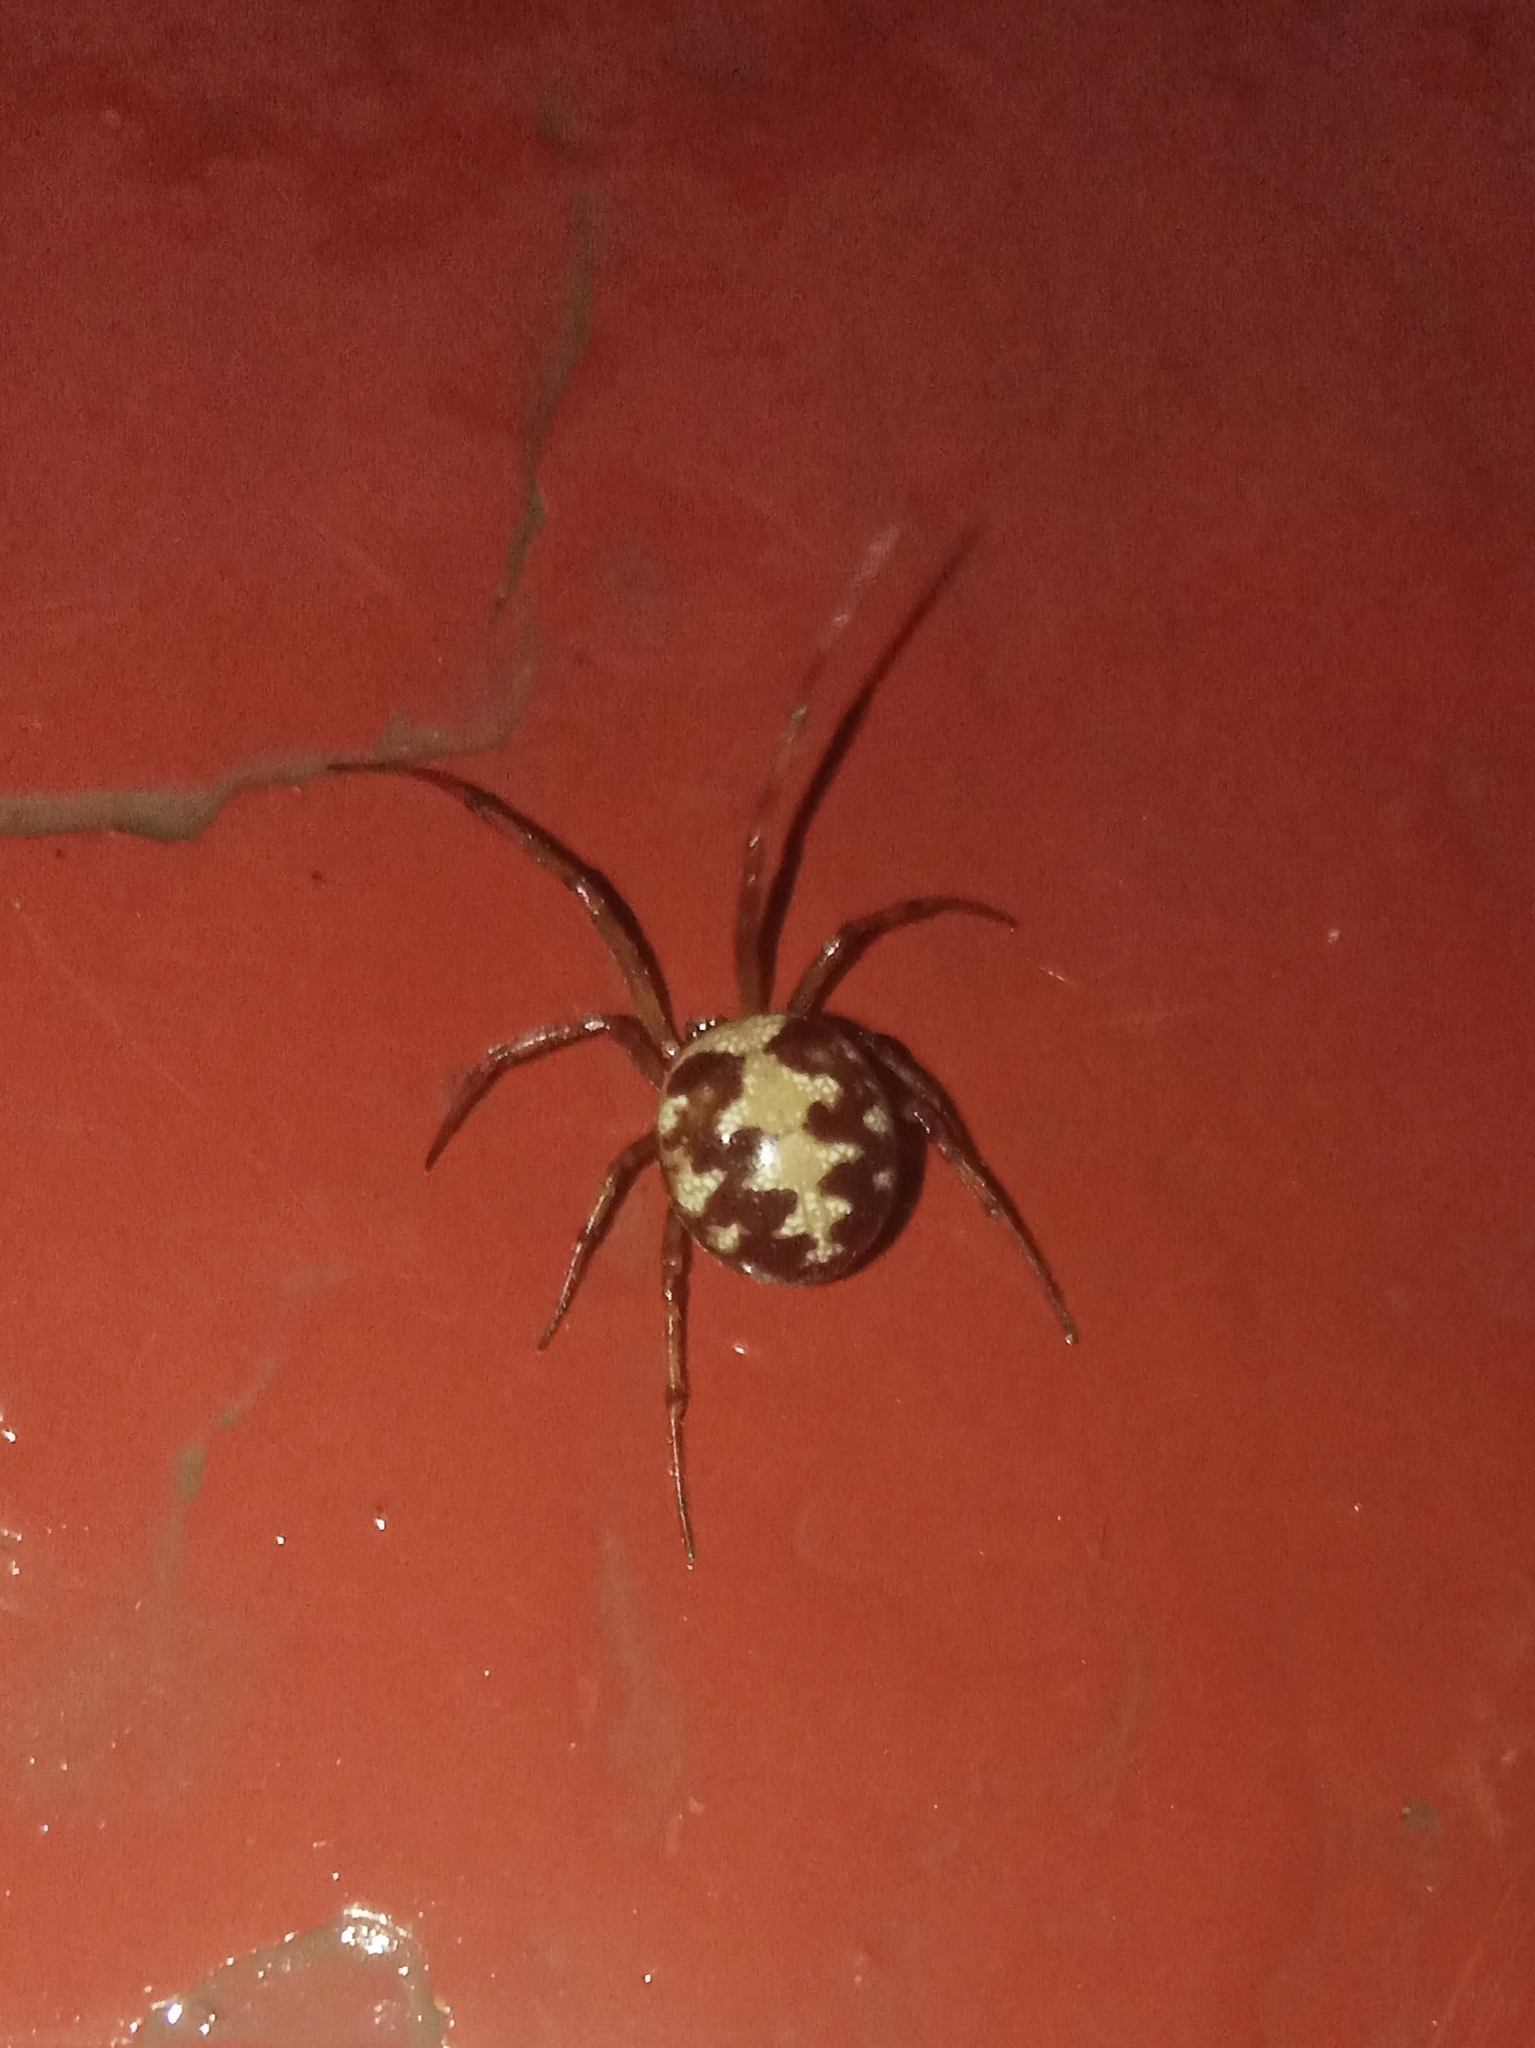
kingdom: Animalia
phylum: Arthropoda
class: Arachnida
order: Araneae
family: Theridiidae
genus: Steatoda
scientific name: Steatoda triangulosa
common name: Triangulate bud spider
